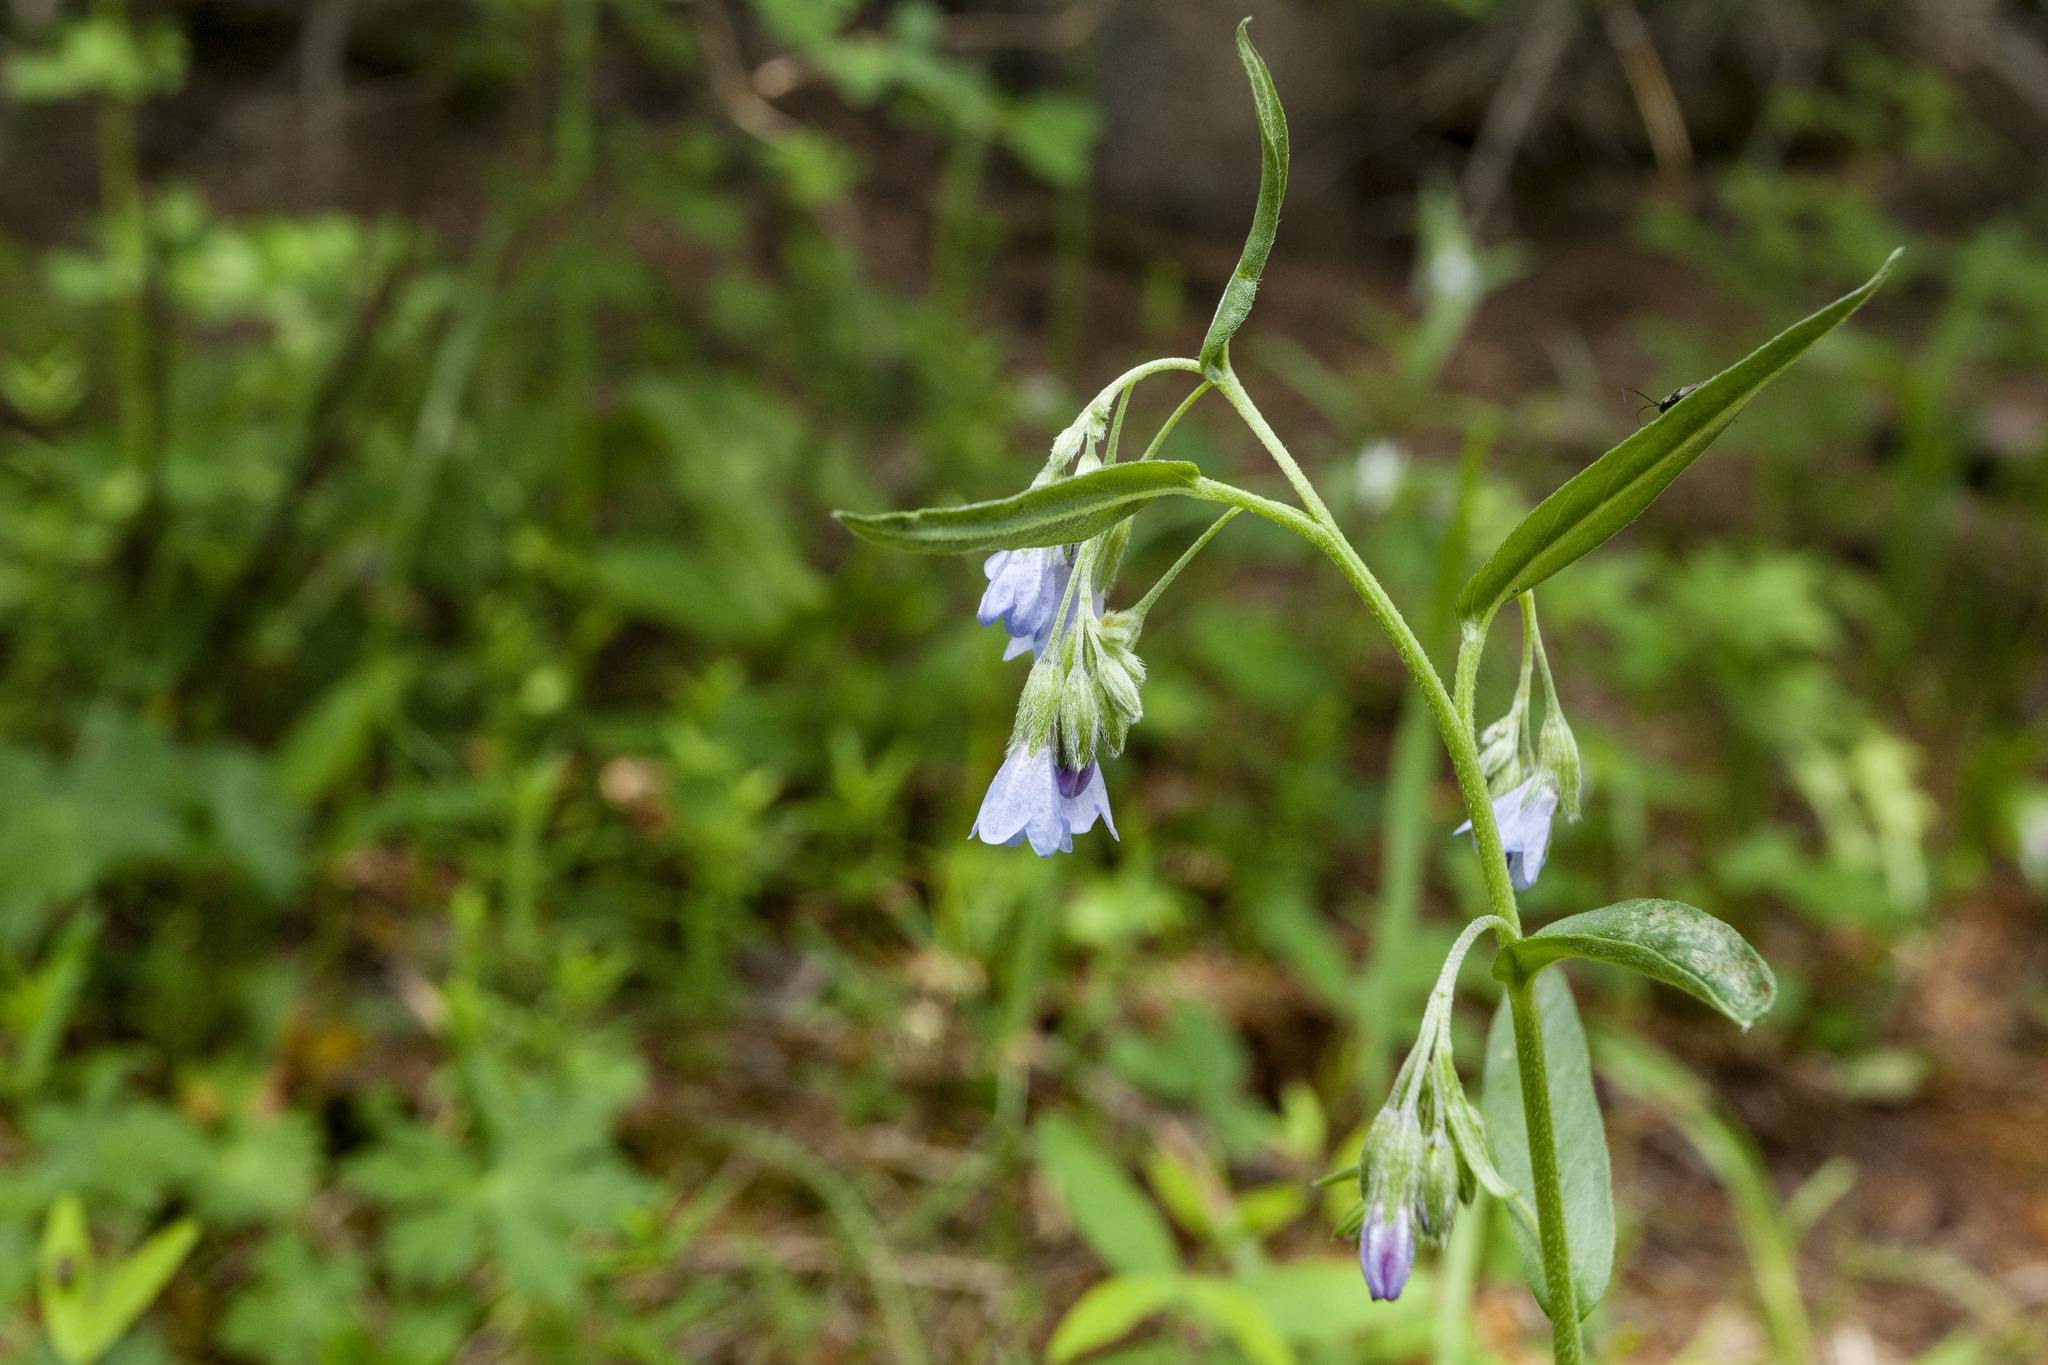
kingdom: Plantae
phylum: Tracheophyta
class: Magnoliopsida
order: Boraginales
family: Boraginaceae
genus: Mertensia
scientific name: Mertensia fendleri
